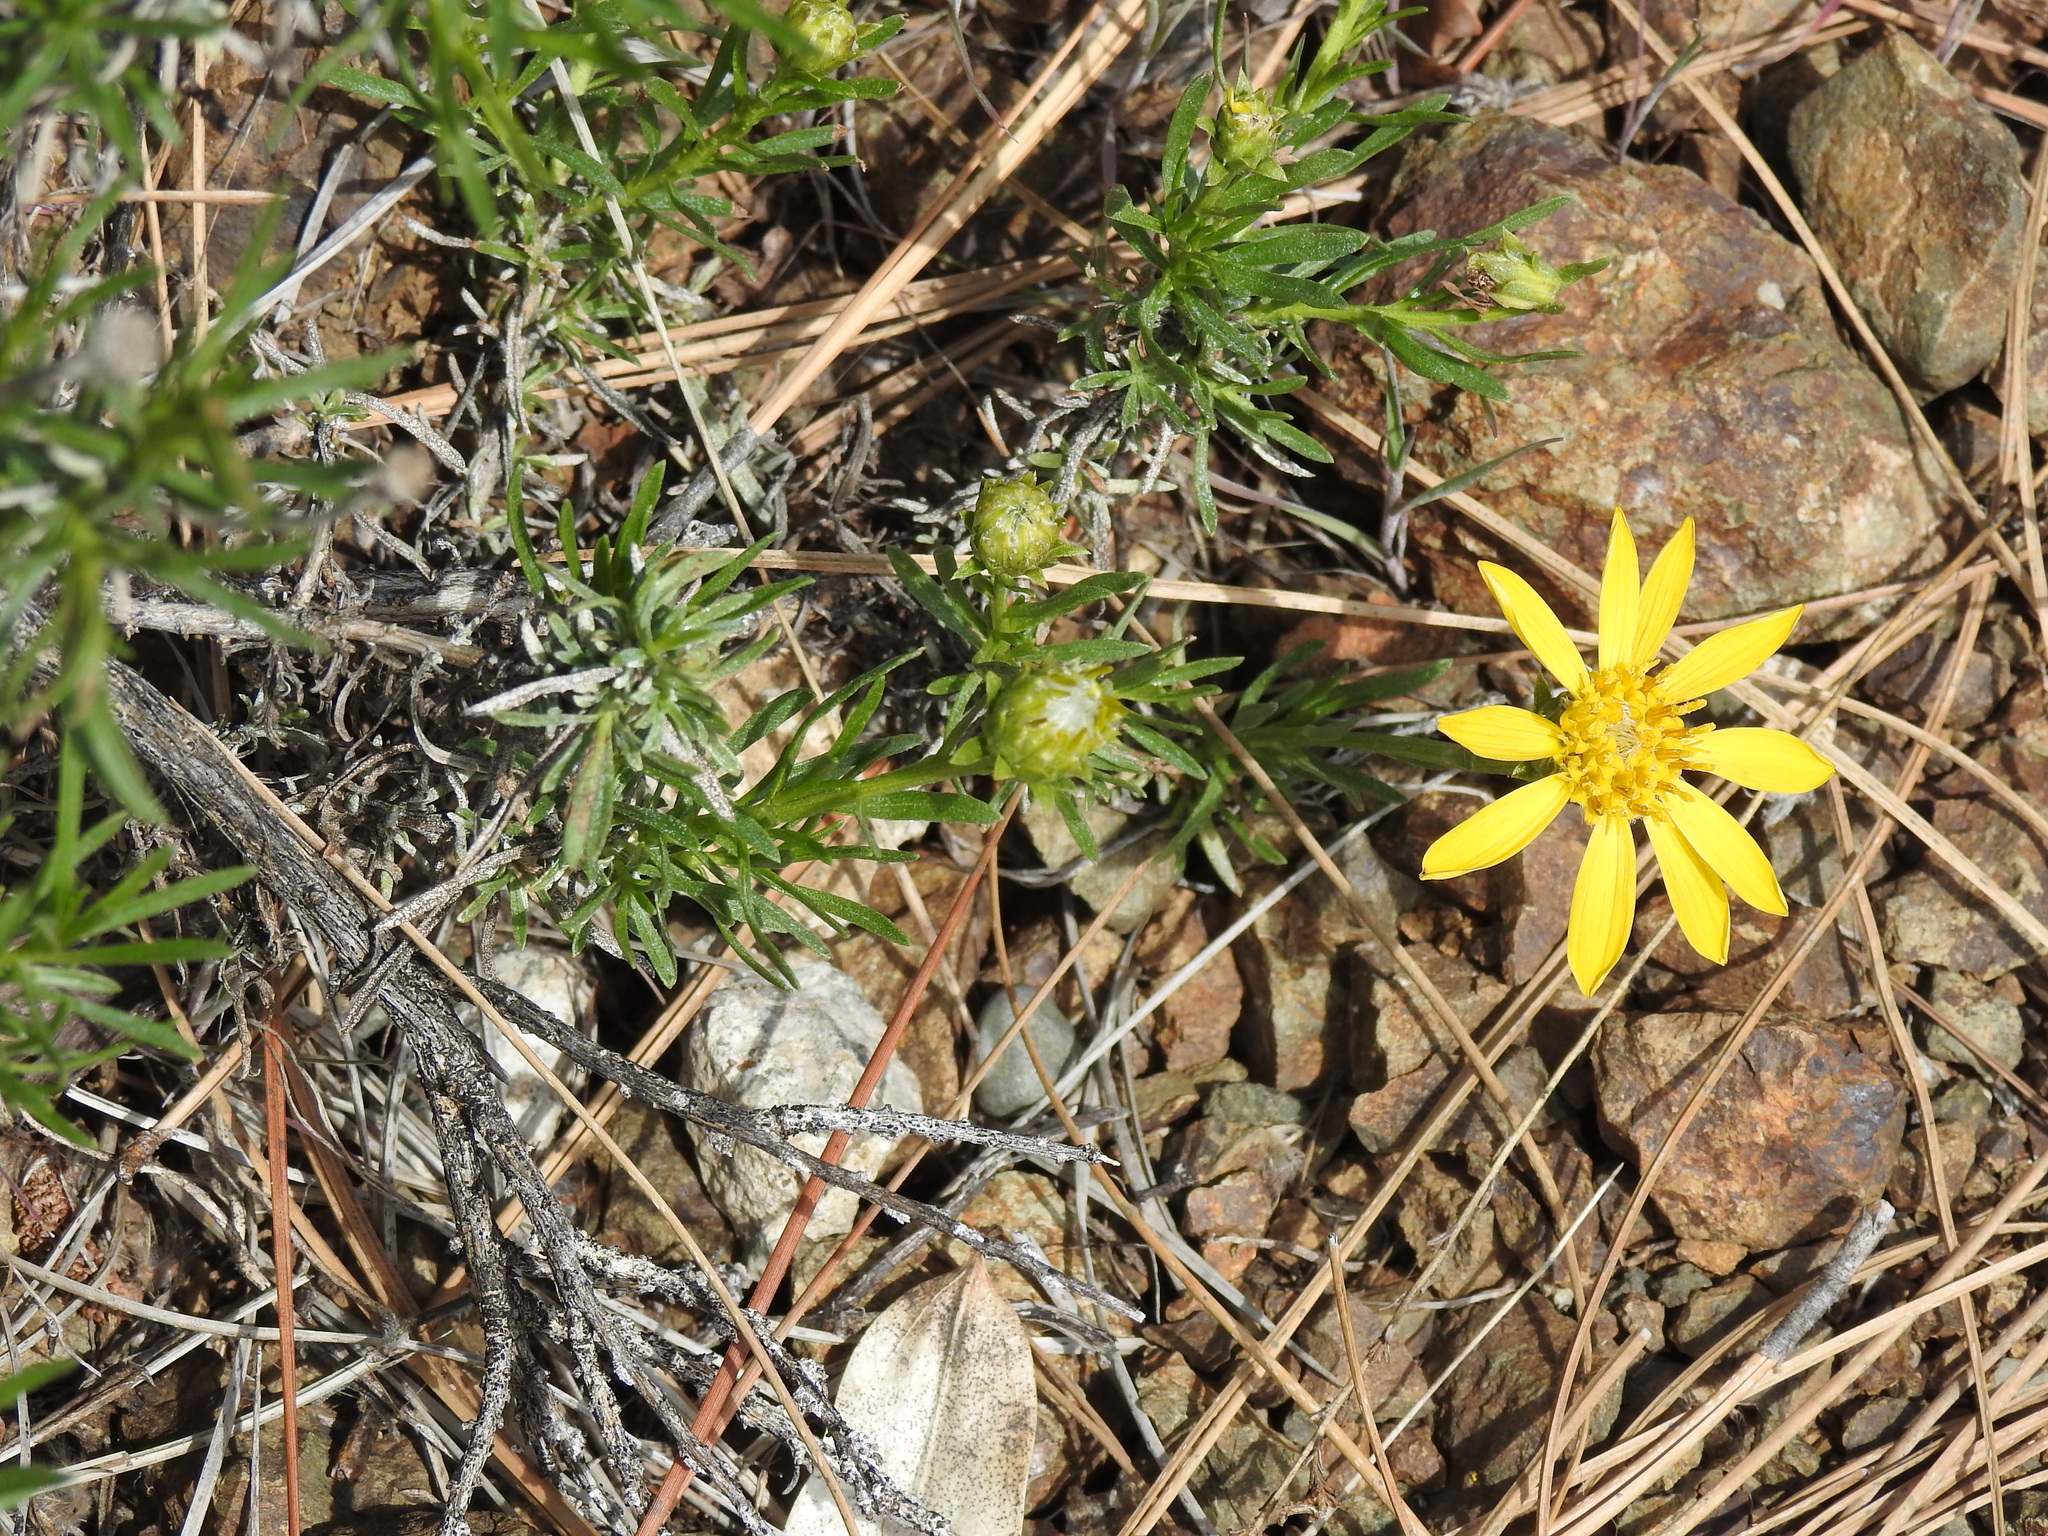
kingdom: Plantae
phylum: Tracheophyta
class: Magnoliopsida
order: Asterales
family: Asteraceae
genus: Ericameria
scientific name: Ericameria linearifolia
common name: Interior goldenbush
